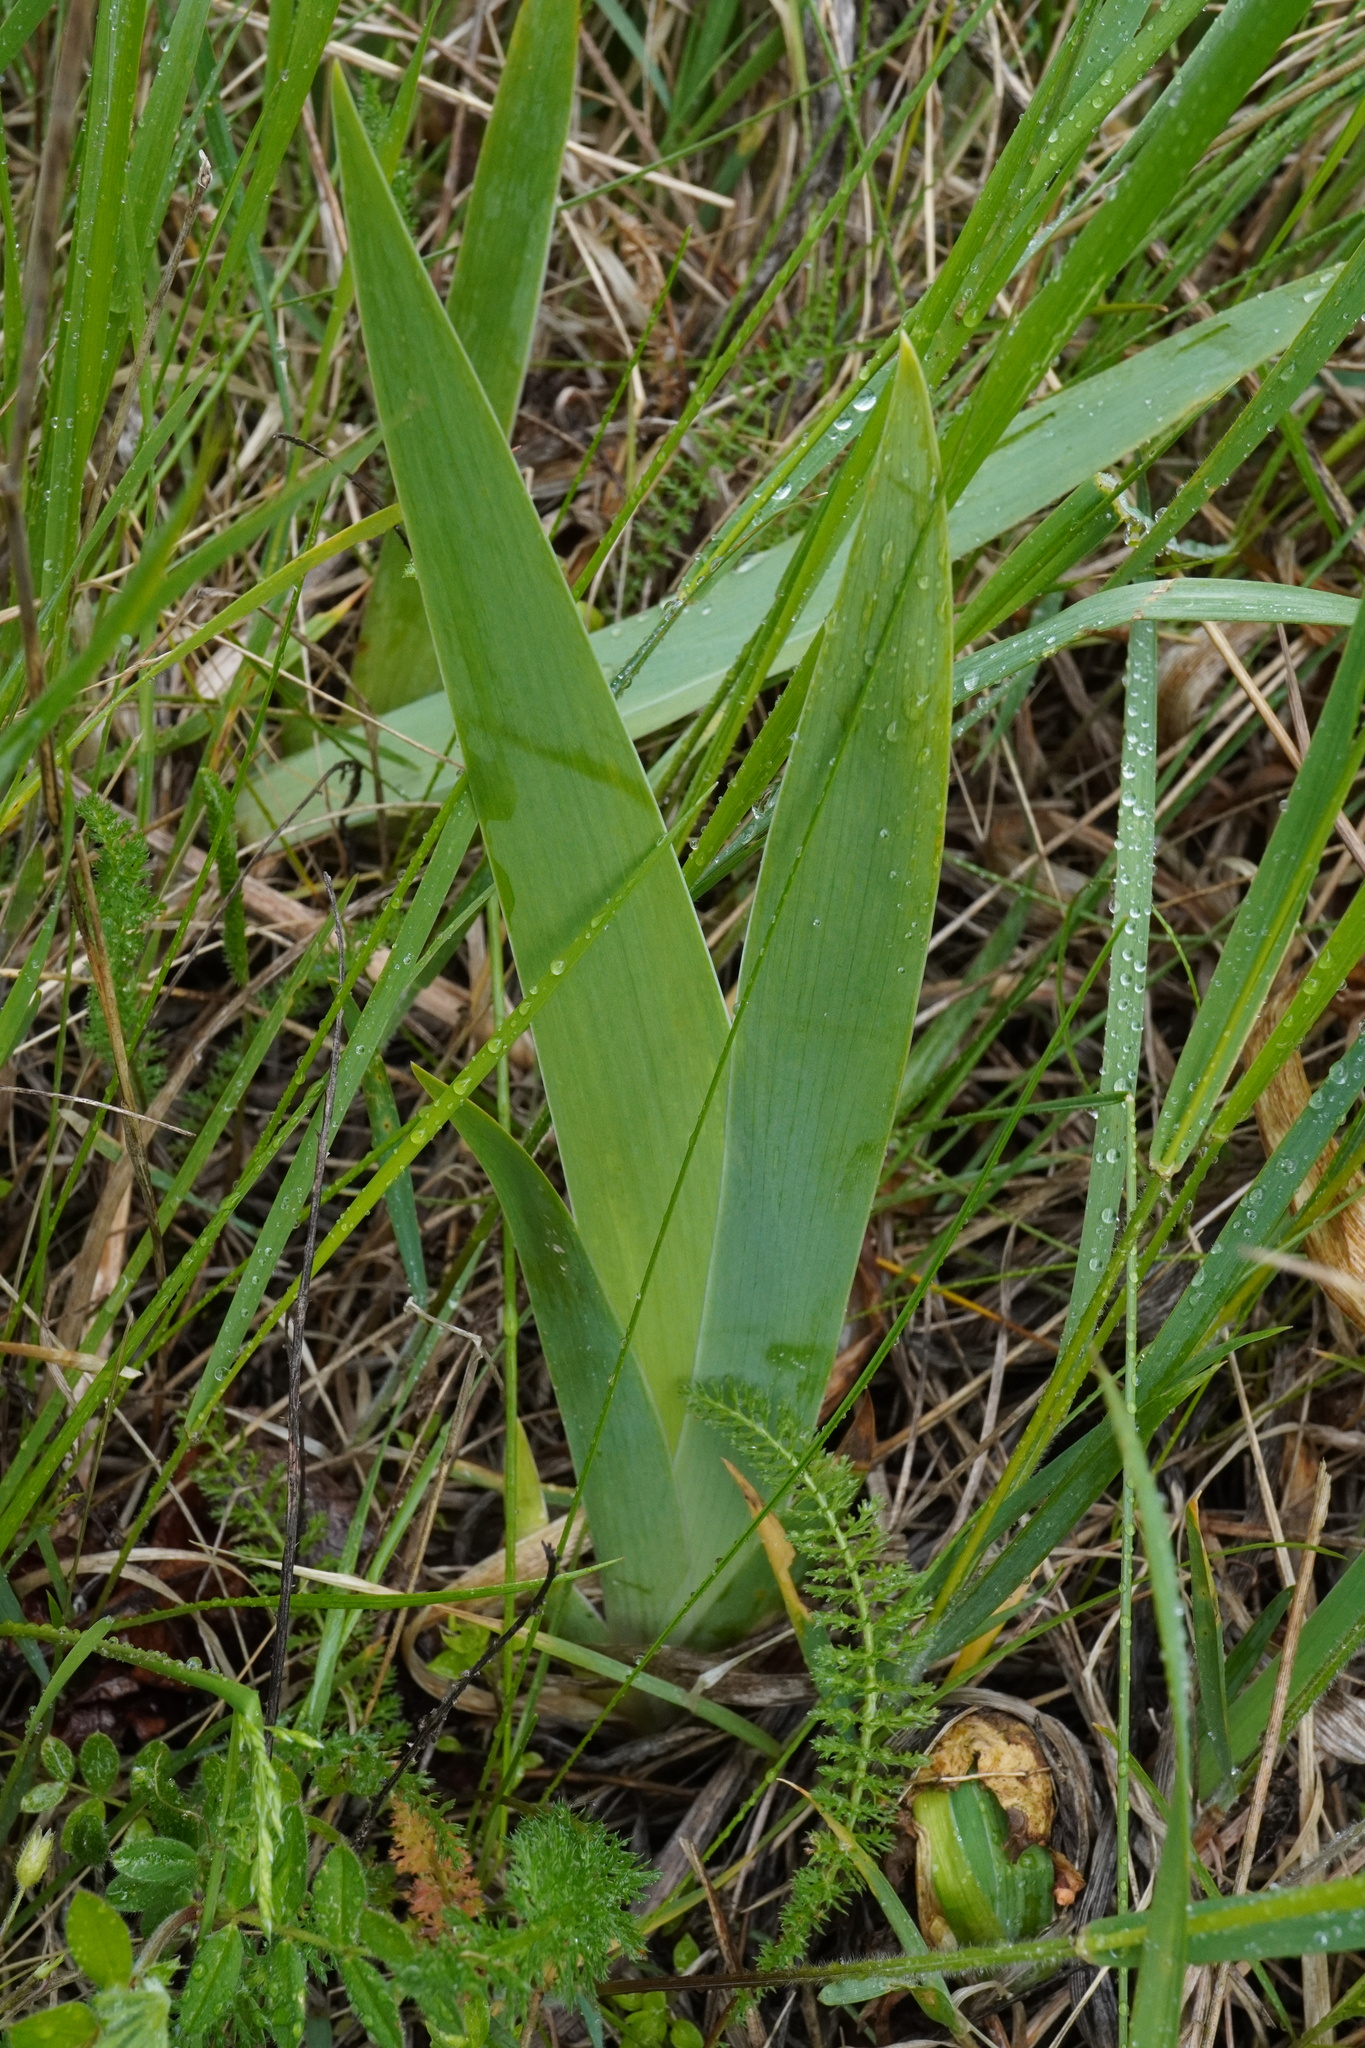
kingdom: Plantae
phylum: Tracheophyta
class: Liliopsida
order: Asparagales
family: Iridaceae
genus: Iris
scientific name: Iris germanica
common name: German iris
